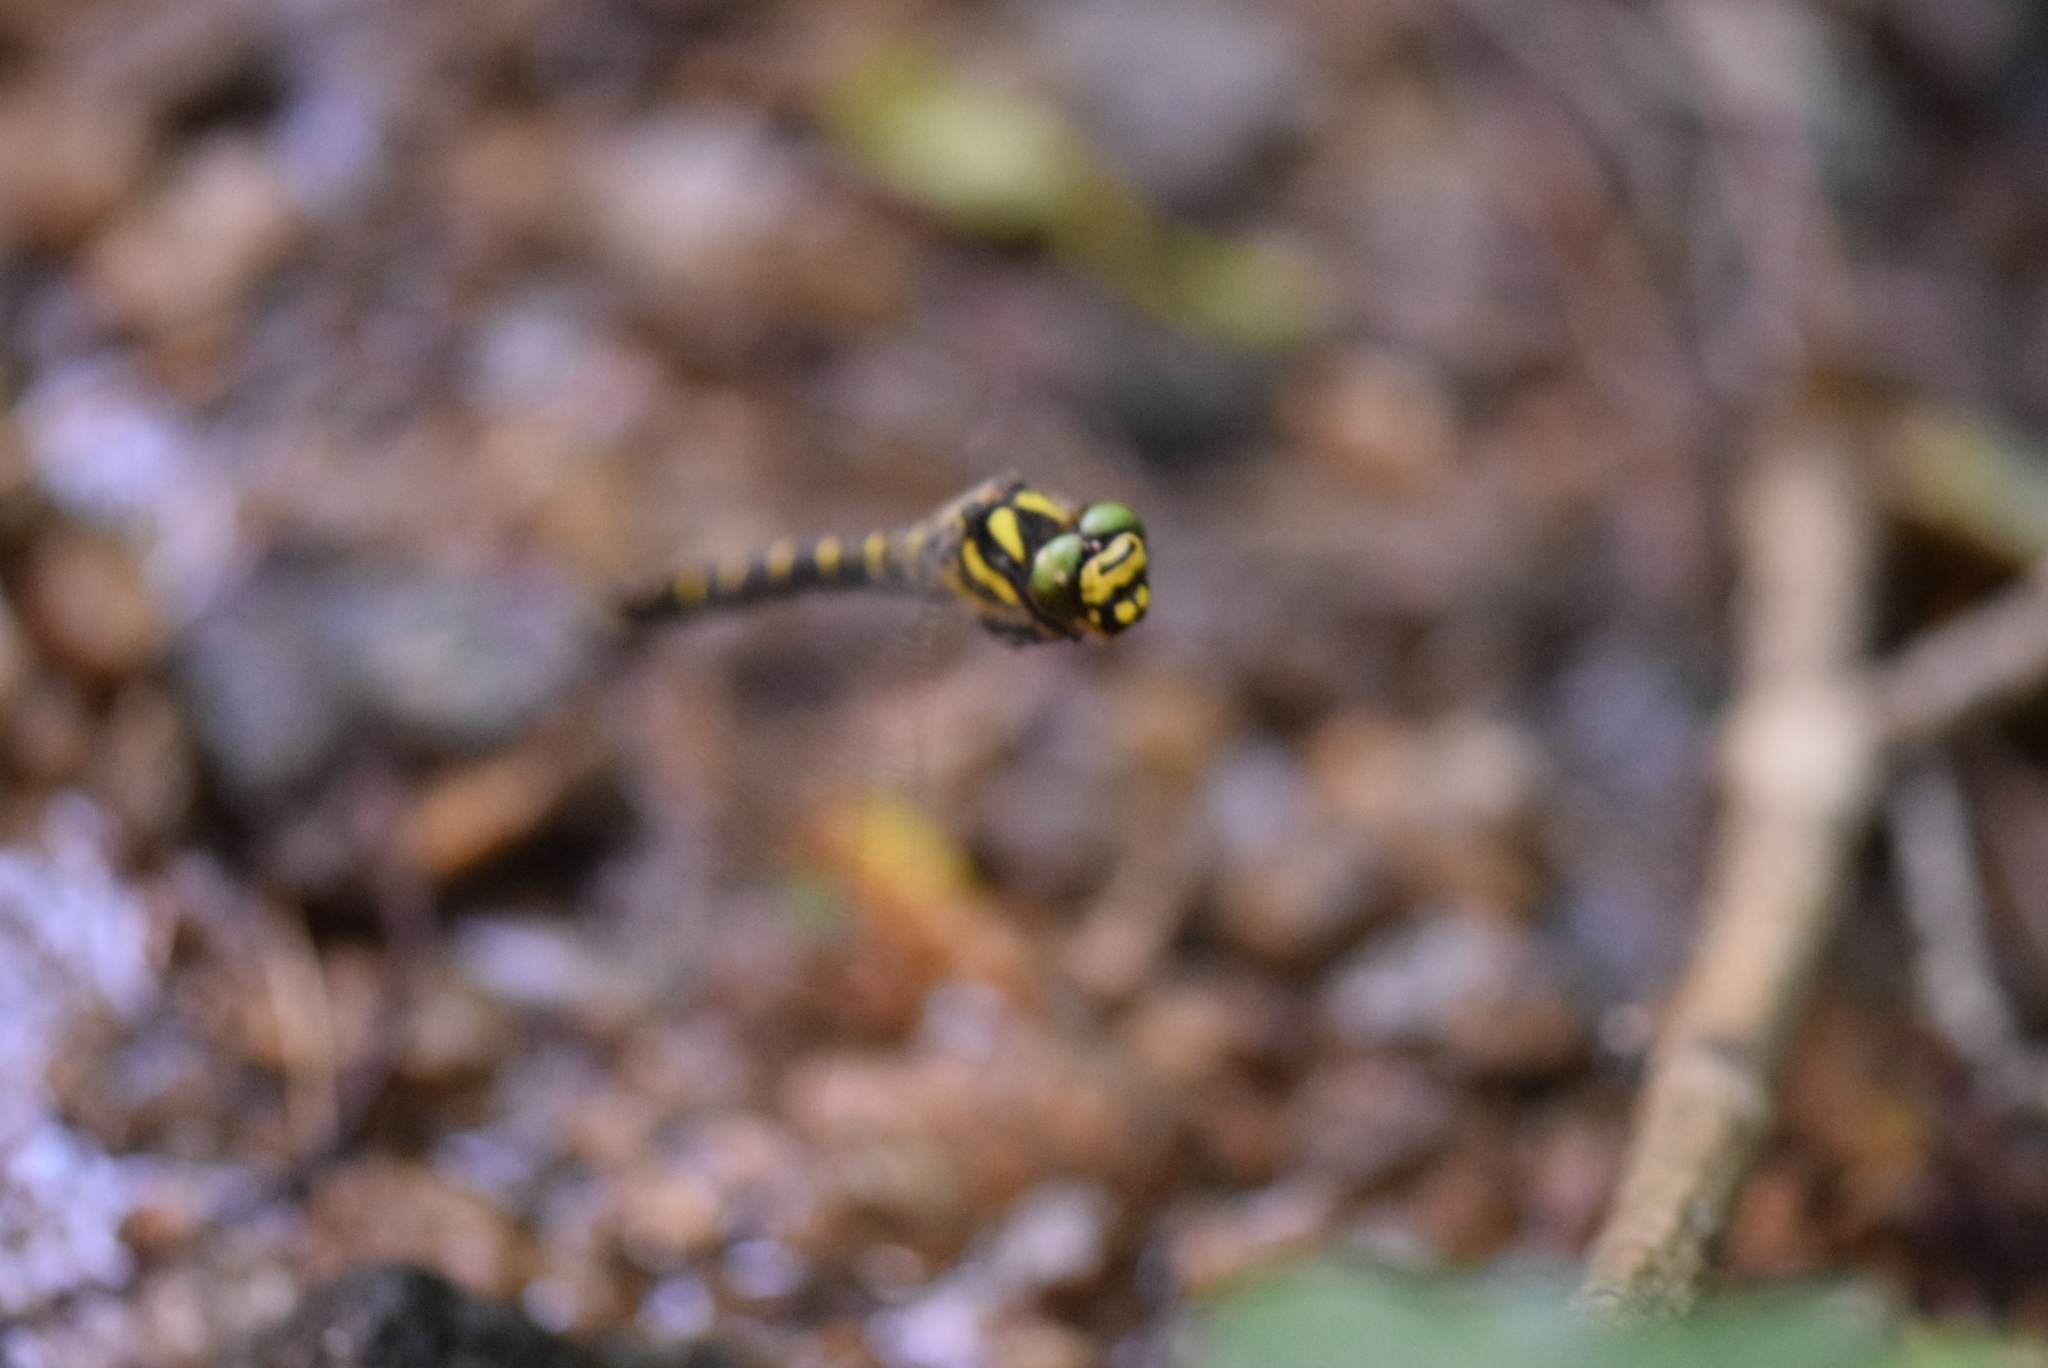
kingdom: Animalia
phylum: Arthropoda
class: Insecta
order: Odonata
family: Cordulegastridae
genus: Cordulegaster
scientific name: Cordulegaster bidentata
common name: Sombre goldenring
